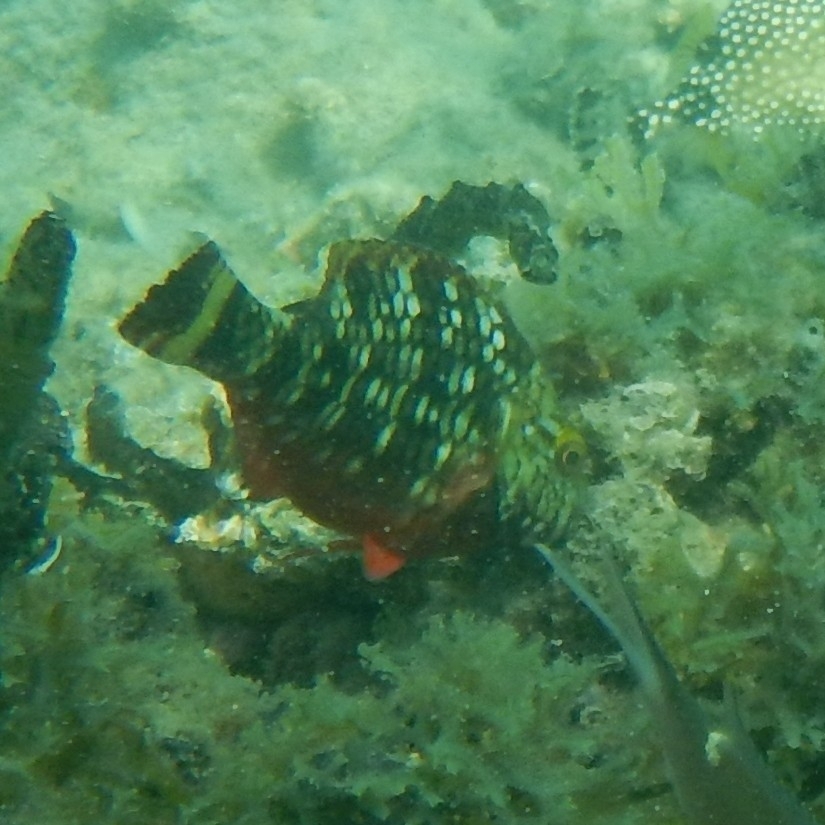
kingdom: Animalia
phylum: Chordata
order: Perciformes
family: Scaridae
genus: Sparisoma
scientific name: Sparisoma viride
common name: Stoplight parrotfish
